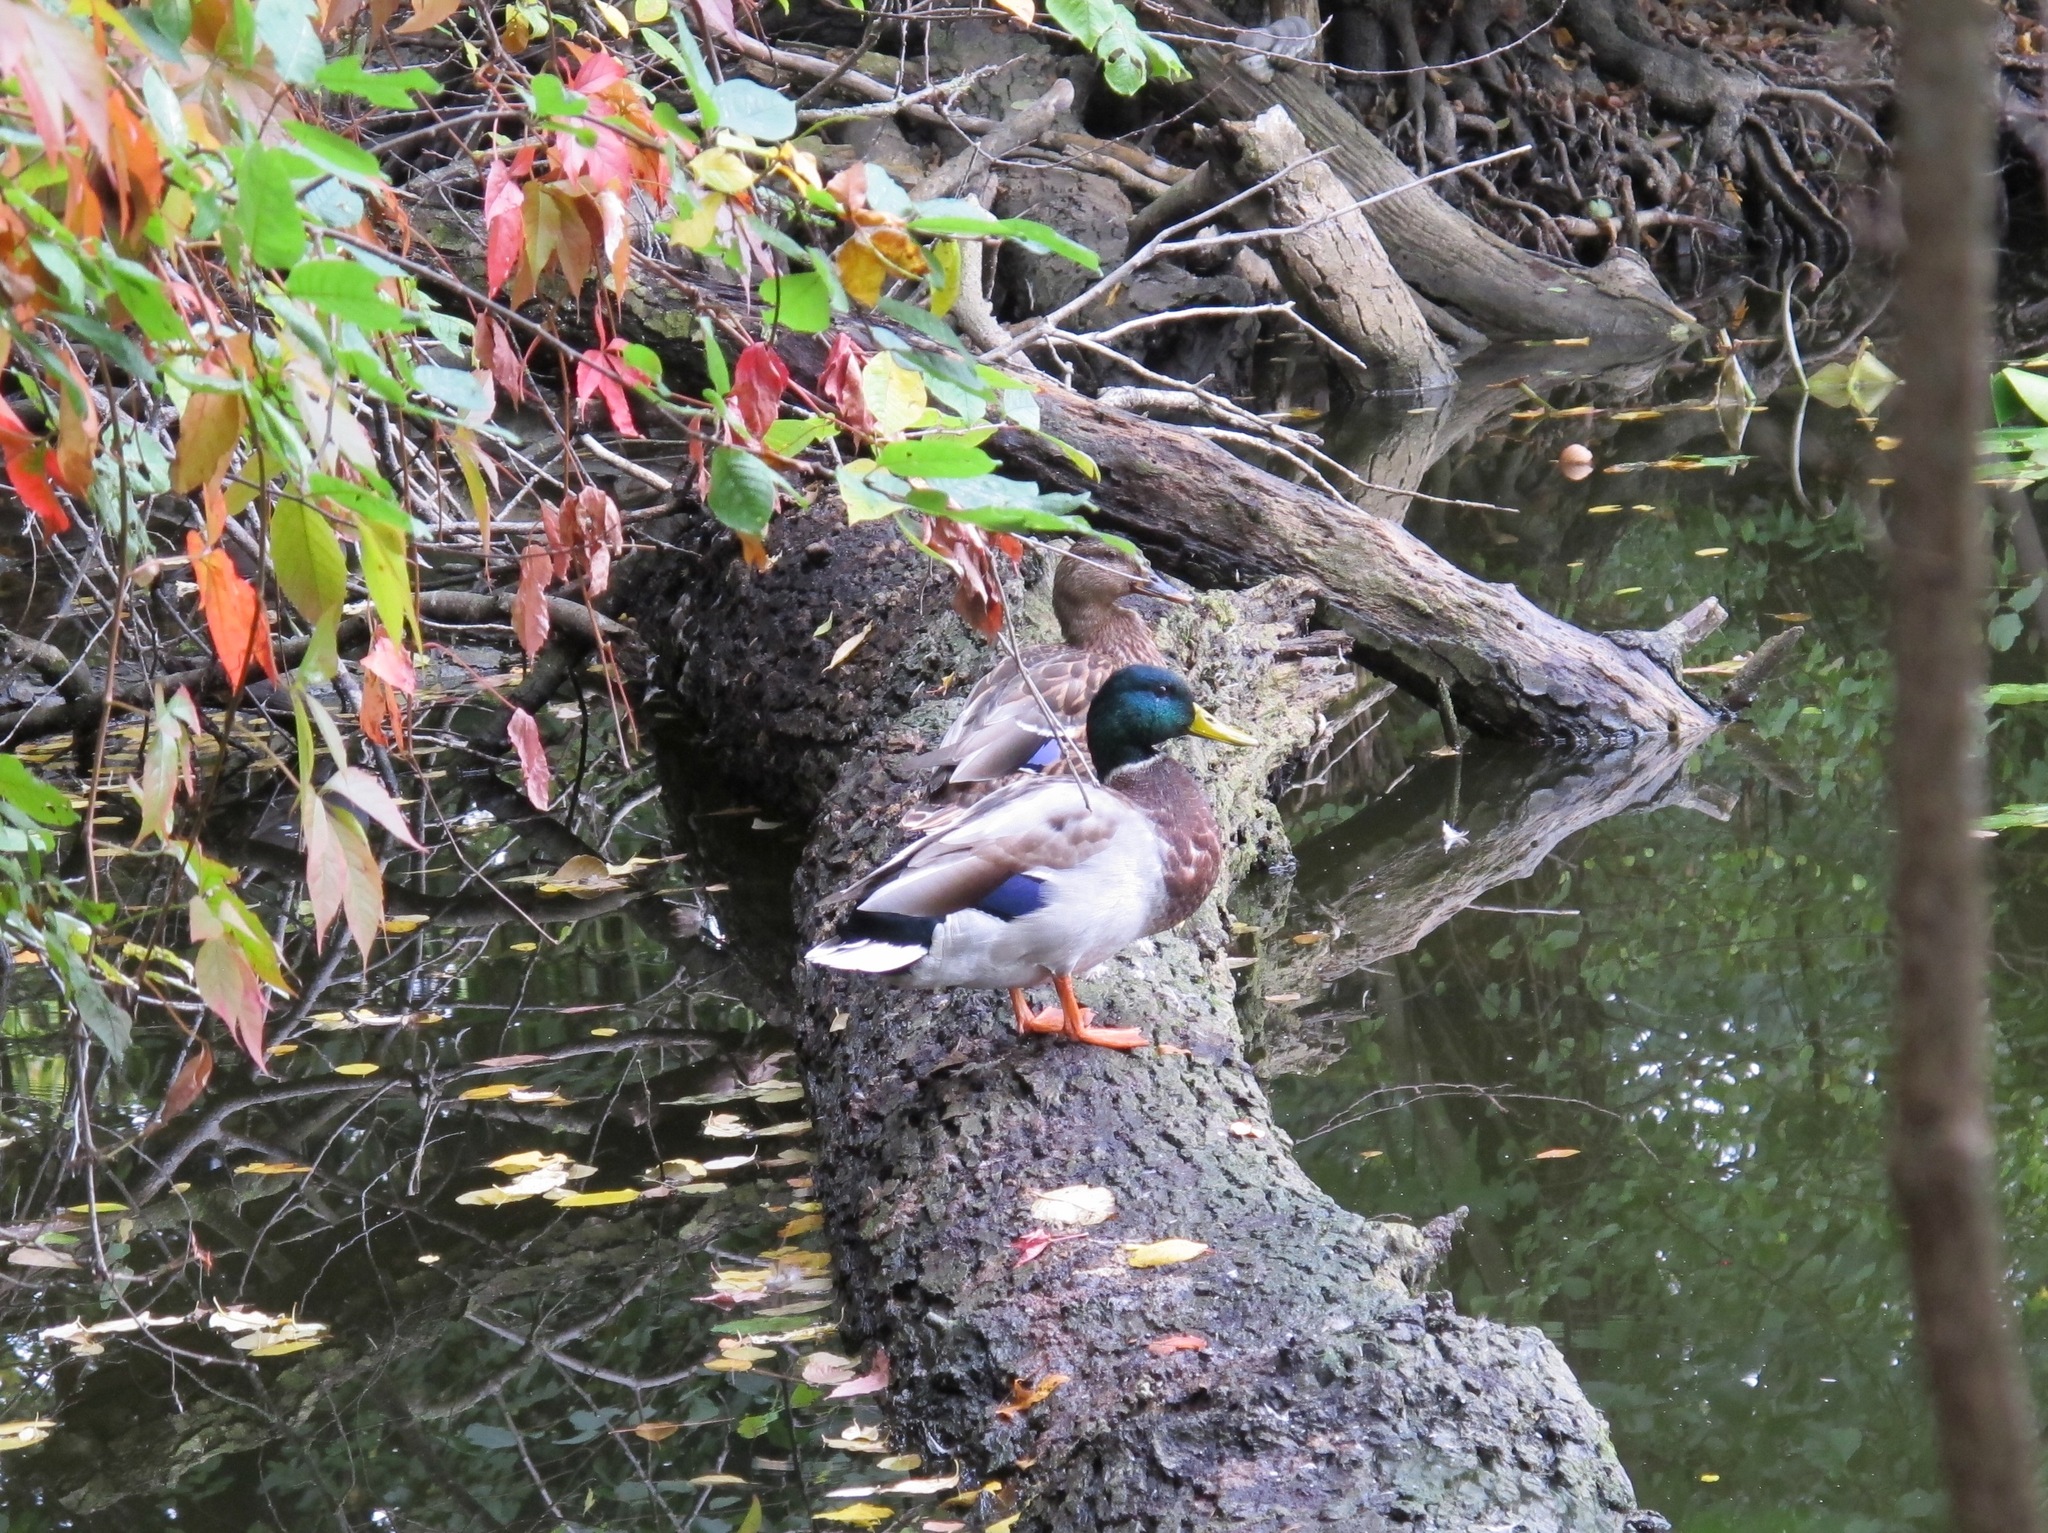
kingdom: Animalia
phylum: Chordata
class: Aves
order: Anseriformes
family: Anatidae
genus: Anas
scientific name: Anas platyrhynchos
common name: Mallard
